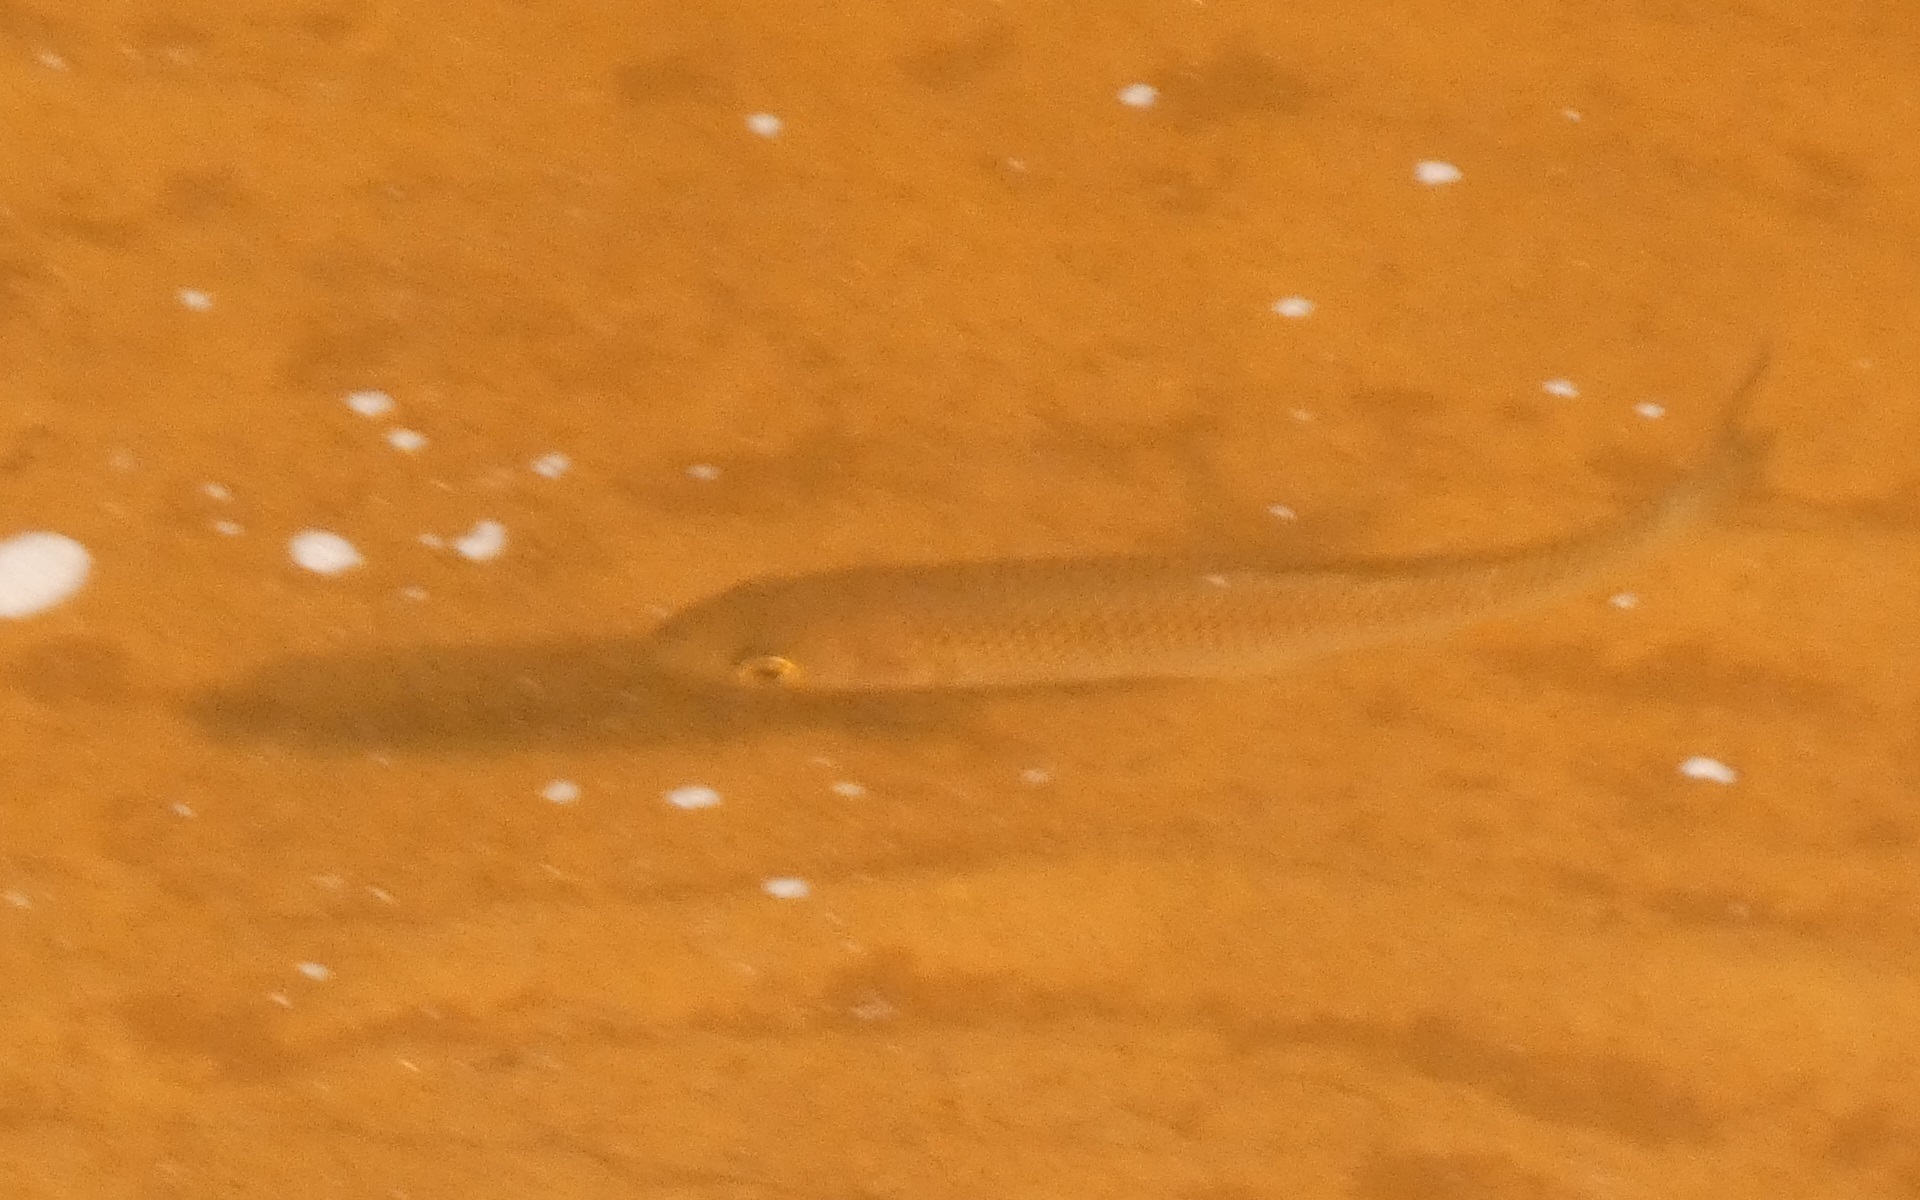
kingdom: Animalia
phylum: Chordata
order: Cypriniformes
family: Cyprinidae
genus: Squalius
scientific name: Squalius cephalus
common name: Chub
